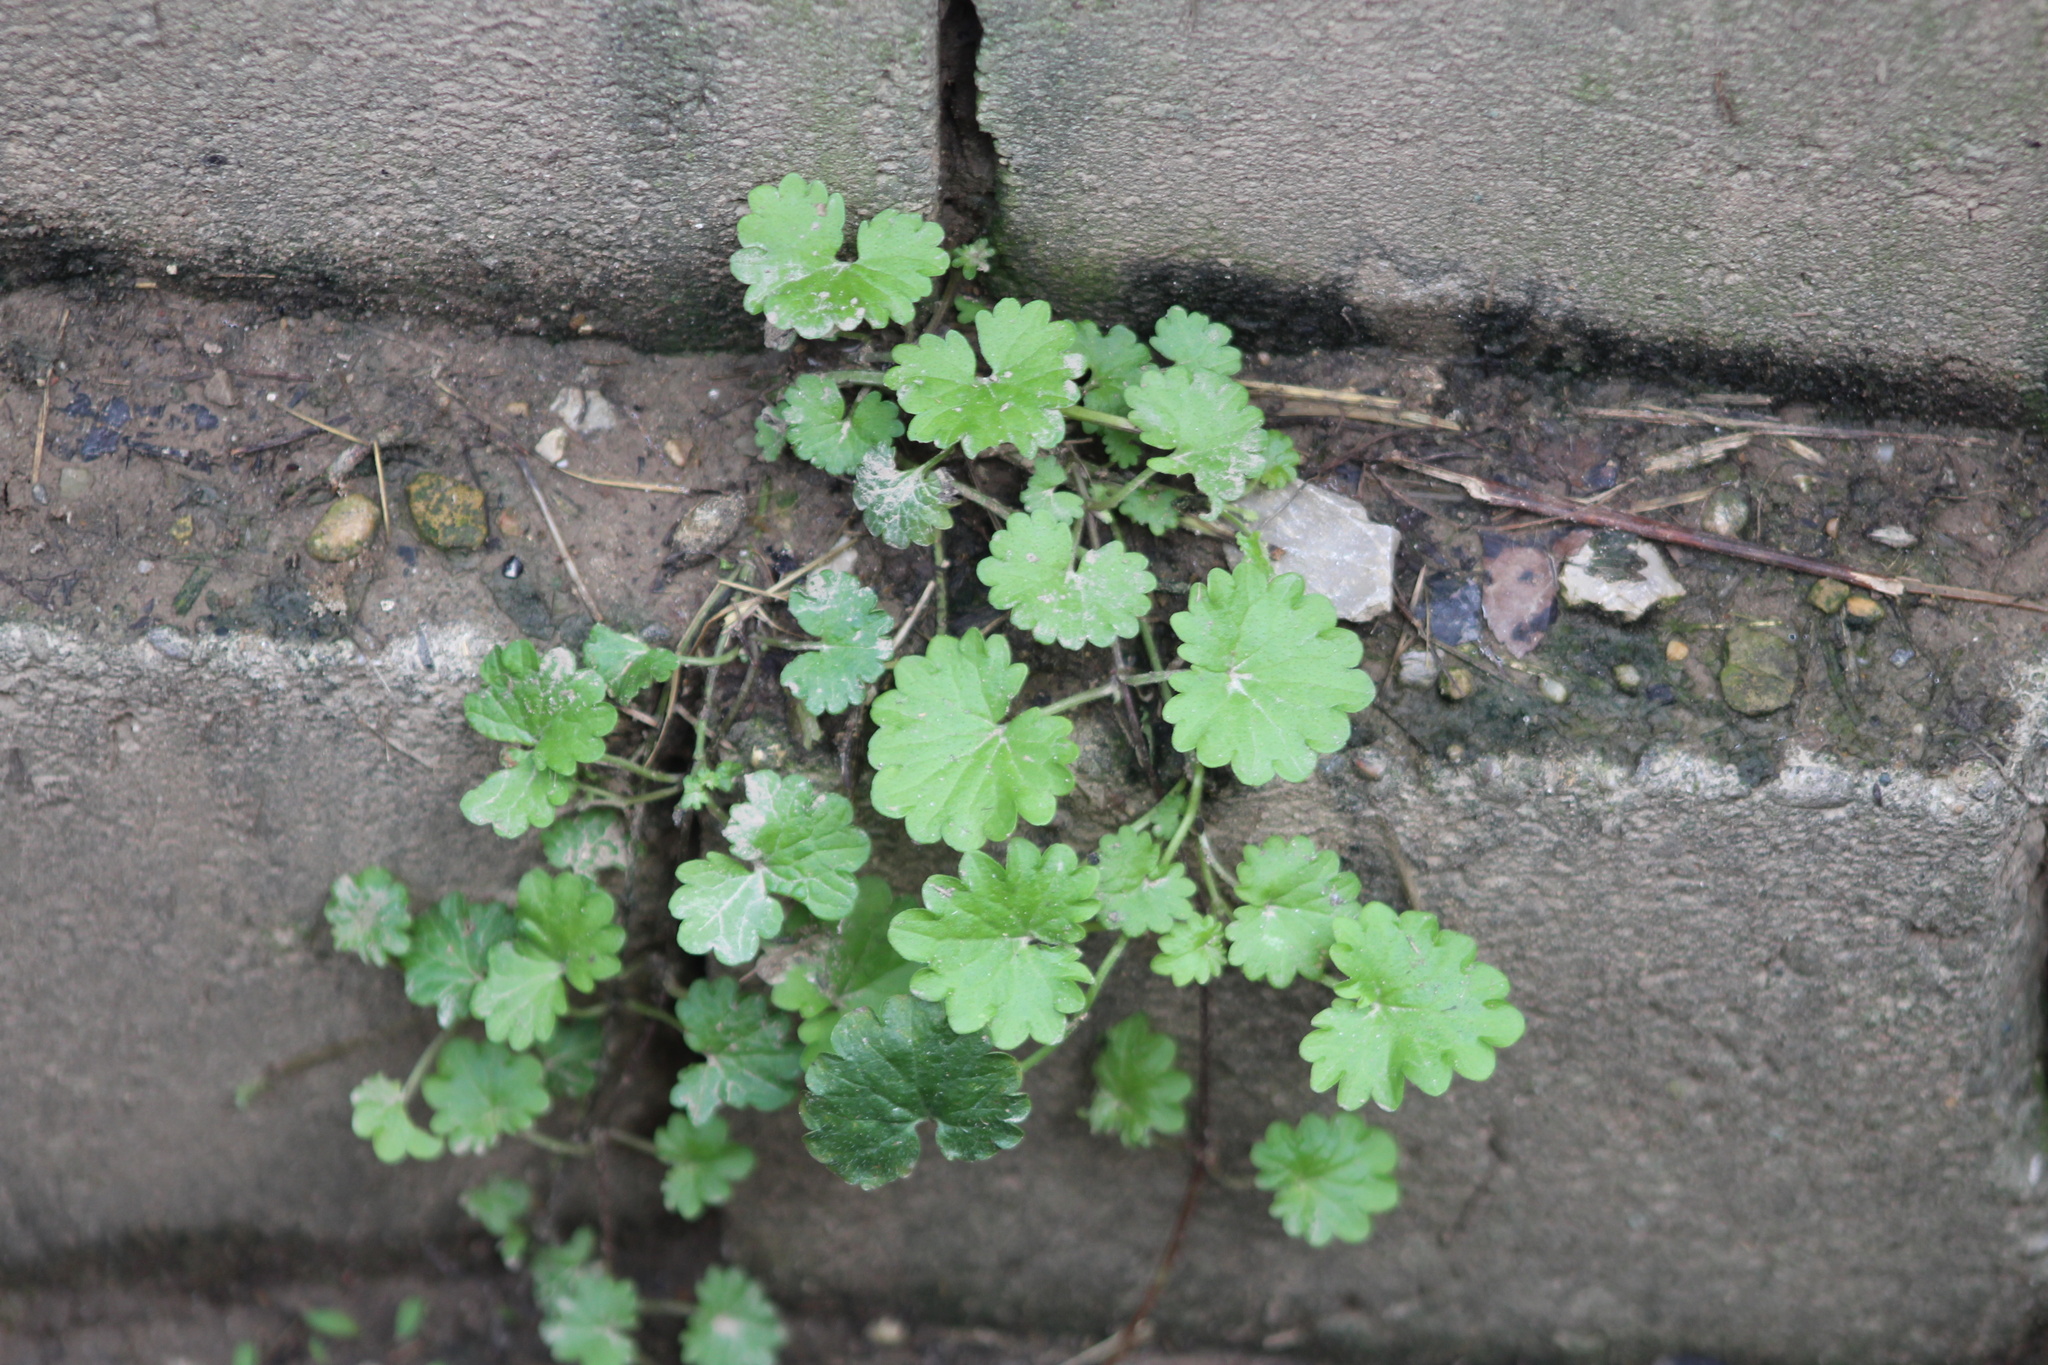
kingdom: Plantae
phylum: Tracheophyta
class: Magnoliopsida
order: Lamiales
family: Lamiaceae
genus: Glechoma
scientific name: Glechoma hederacea
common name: Ground ivy
